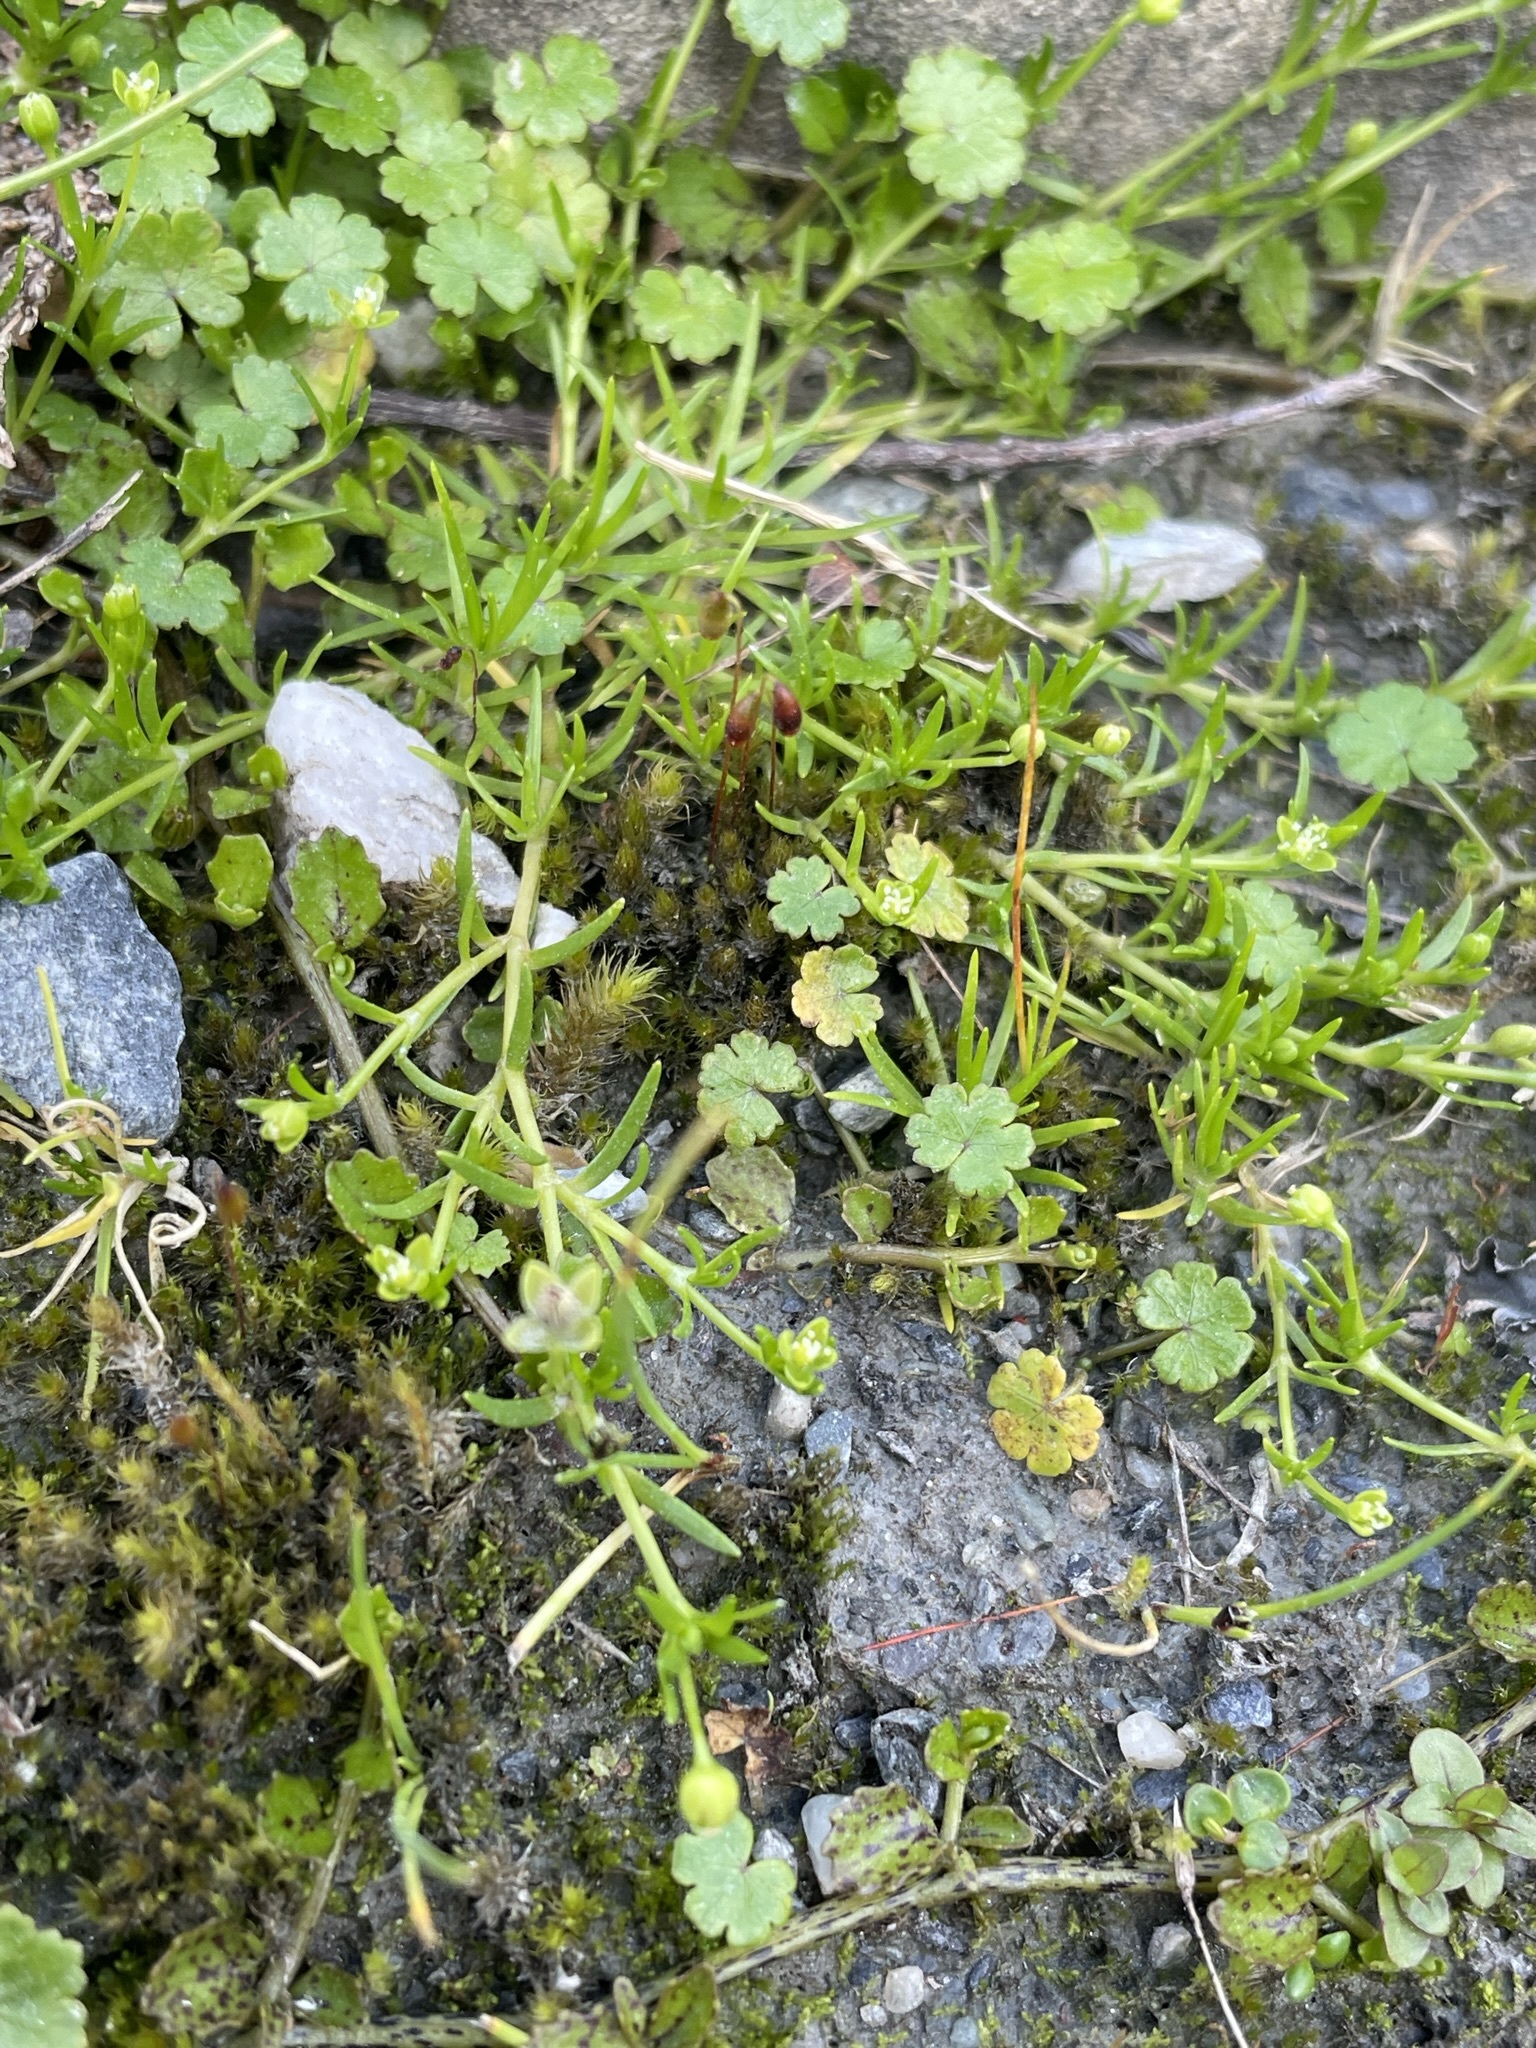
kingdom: Plantae
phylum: Tracheophyta
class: Magnoliopsida
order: Caryophyllales
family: Caryophyllaceae
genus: Sagina
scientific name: Sagina procumbens
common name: Procumbent pearlwort
